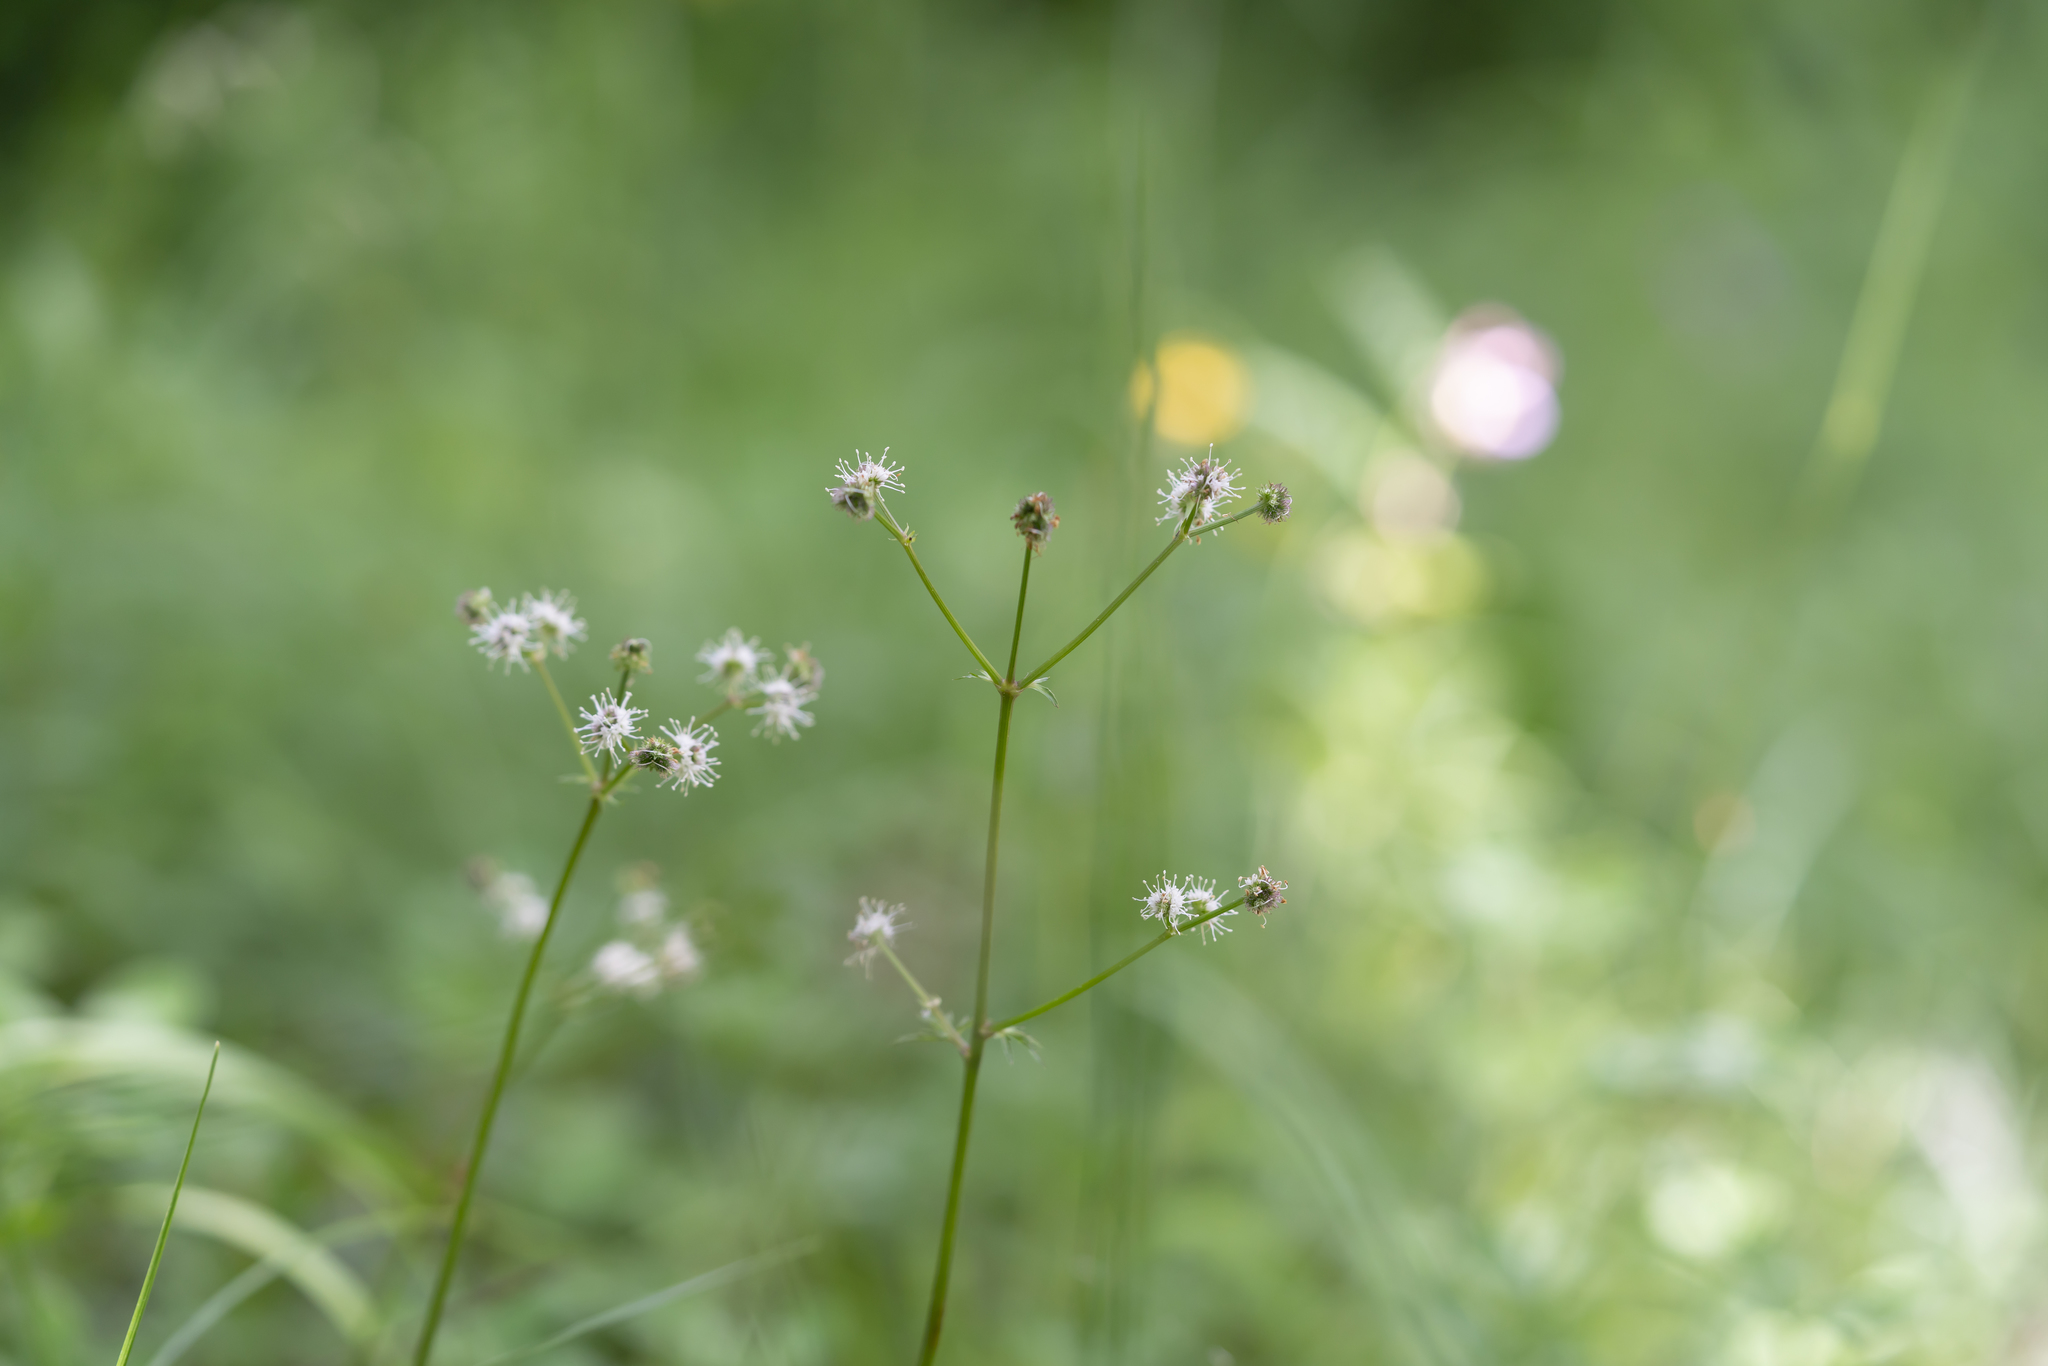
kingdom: Plantae
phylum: Tracheophyta
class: Magnoliopsida
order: Apiales
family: Apiaceae
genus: Sanicula
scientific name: Sanicula europaea
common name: Sanicle
